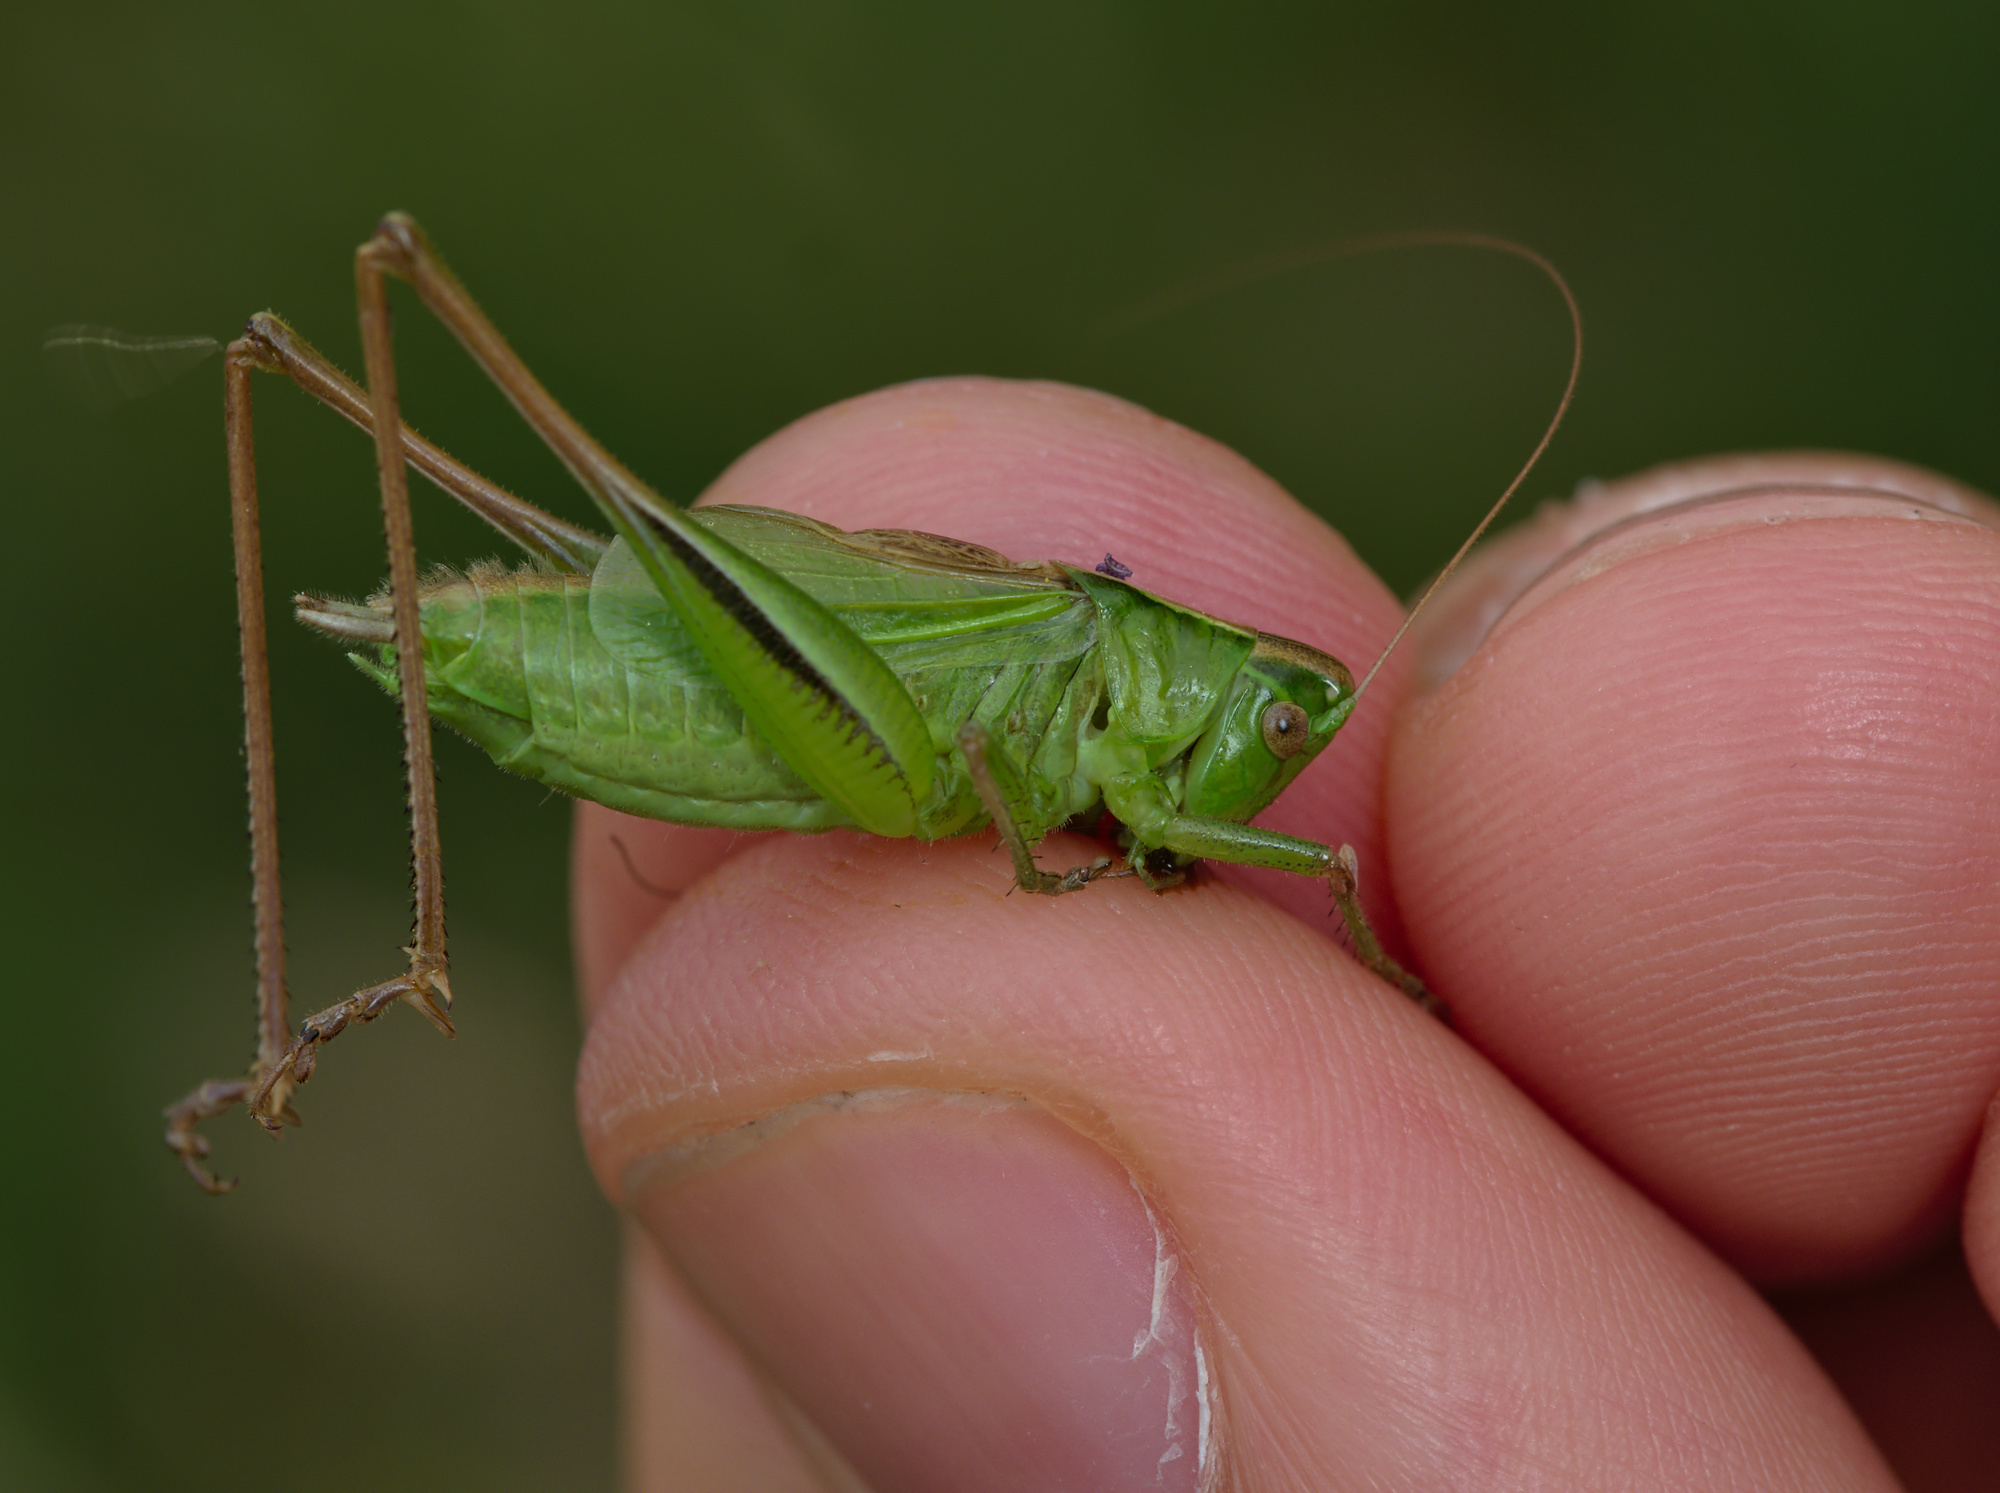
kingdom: Animalia
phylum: Arthropoda
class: Insecta
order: Orthoptera
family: Tettigoniidae
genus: Bicolorana
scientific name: Bicolorana bicolor
